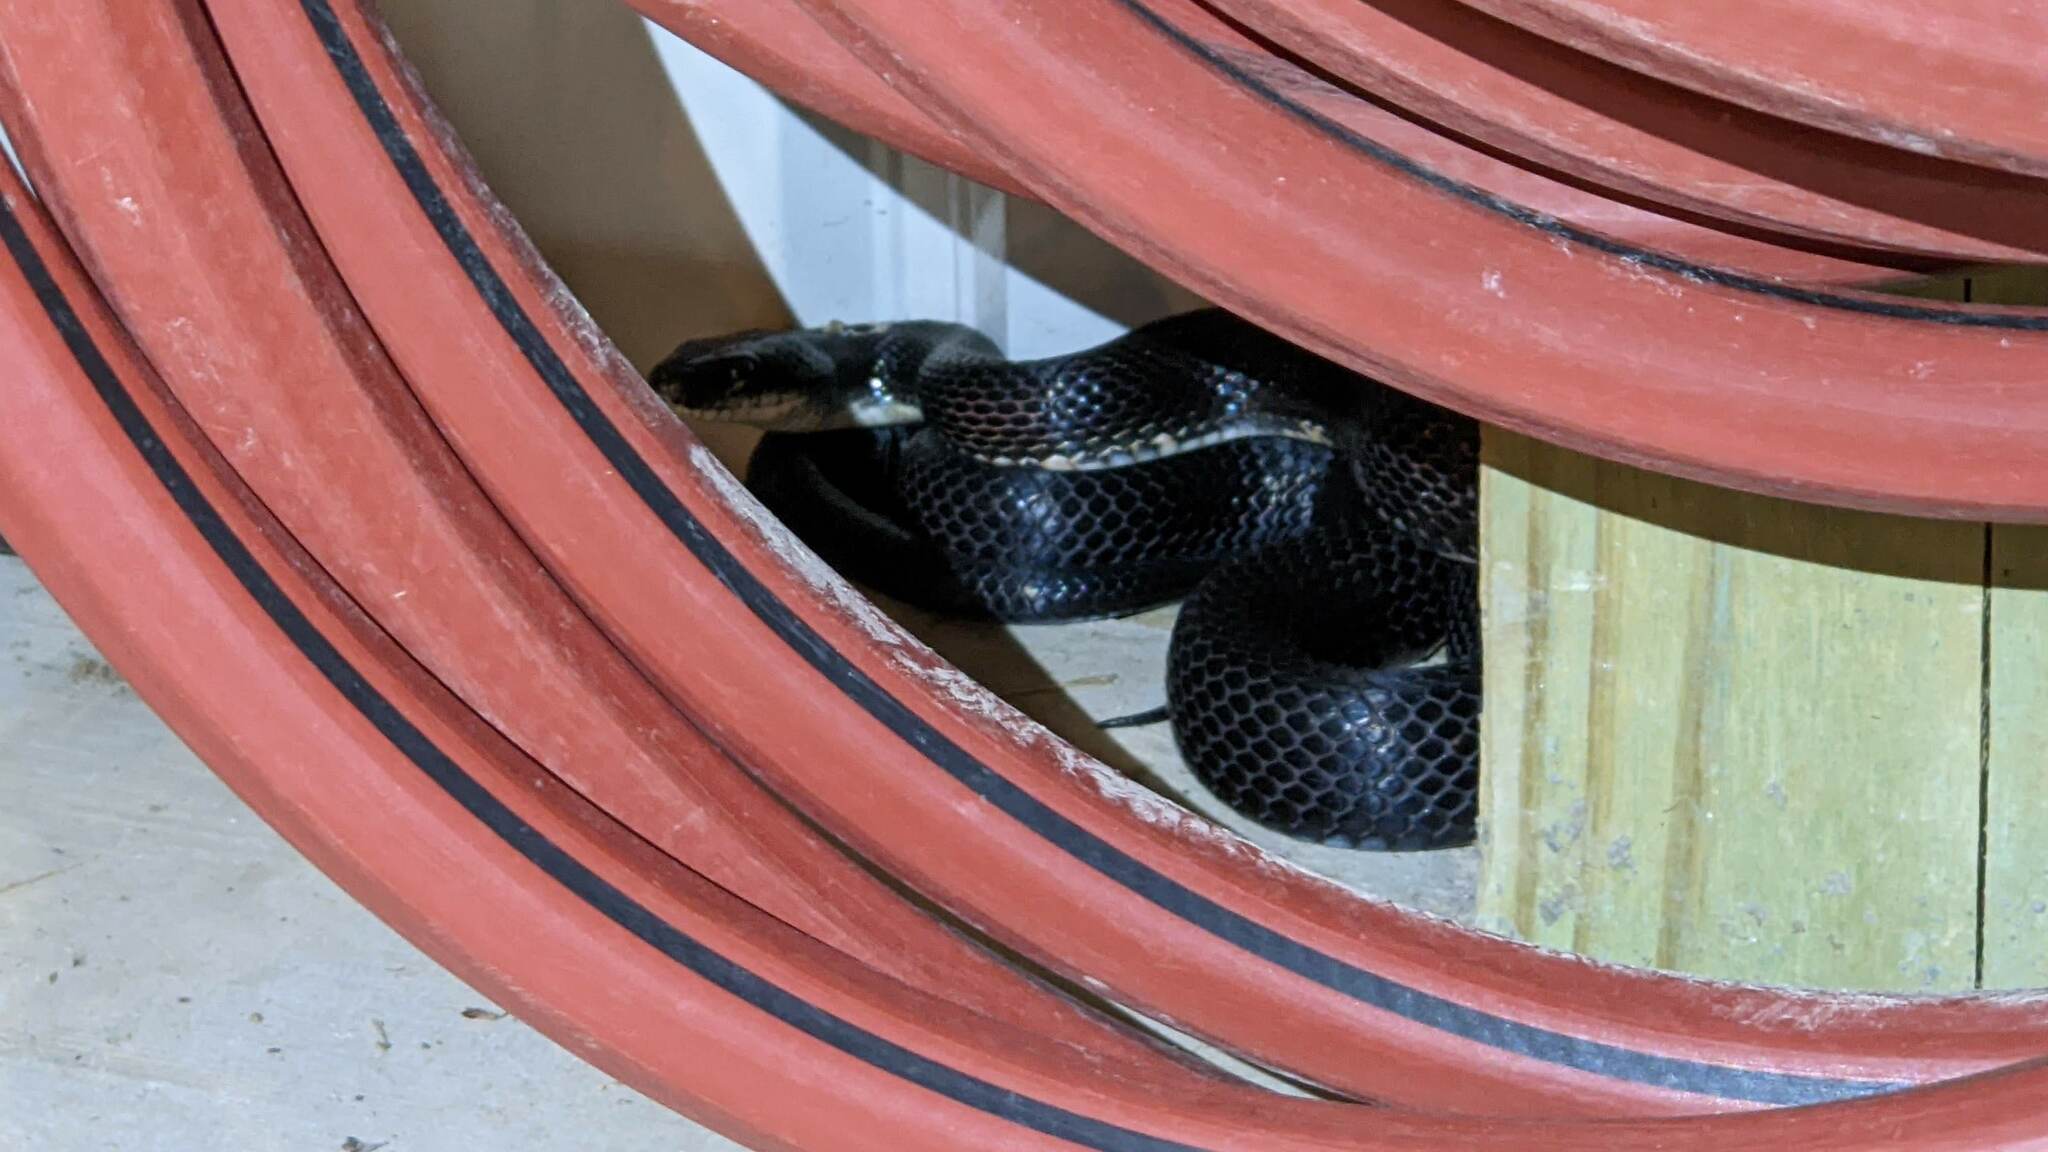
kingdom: Animalia
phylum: Chordata
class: Squamata
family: Colubridae
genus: Pantherophis
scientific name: Pantherophis obsoletus
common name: Black rat snake
